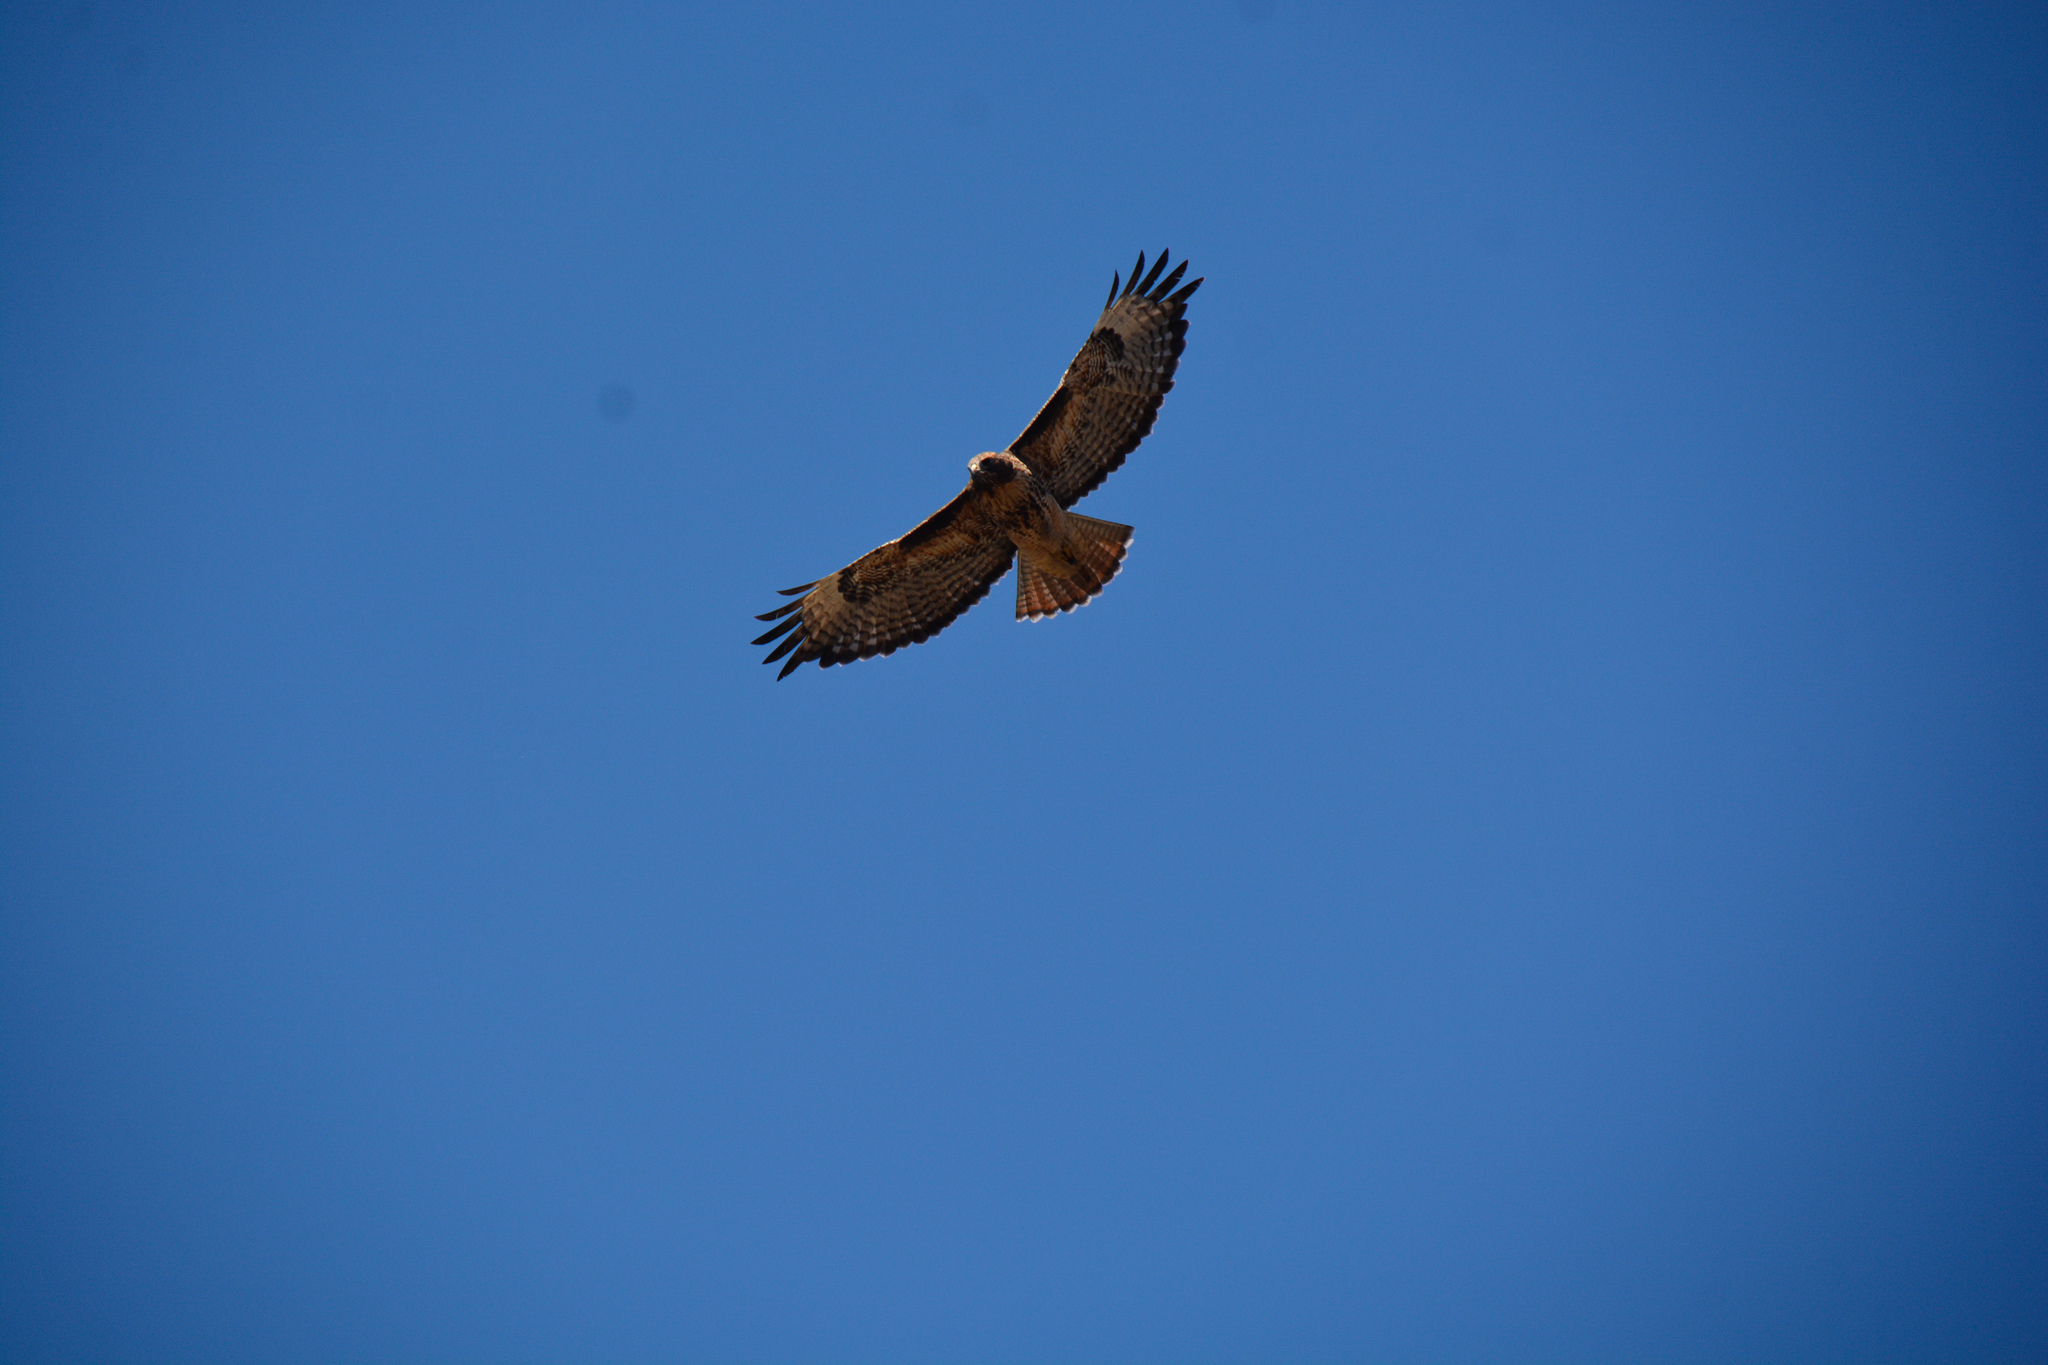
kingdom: Animalia
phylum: Chordata
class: Aves
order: Accipitriformes
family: Accipitridae
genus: Buteo
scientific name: Buteo jamaicensis
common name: Red-tailed hawk
